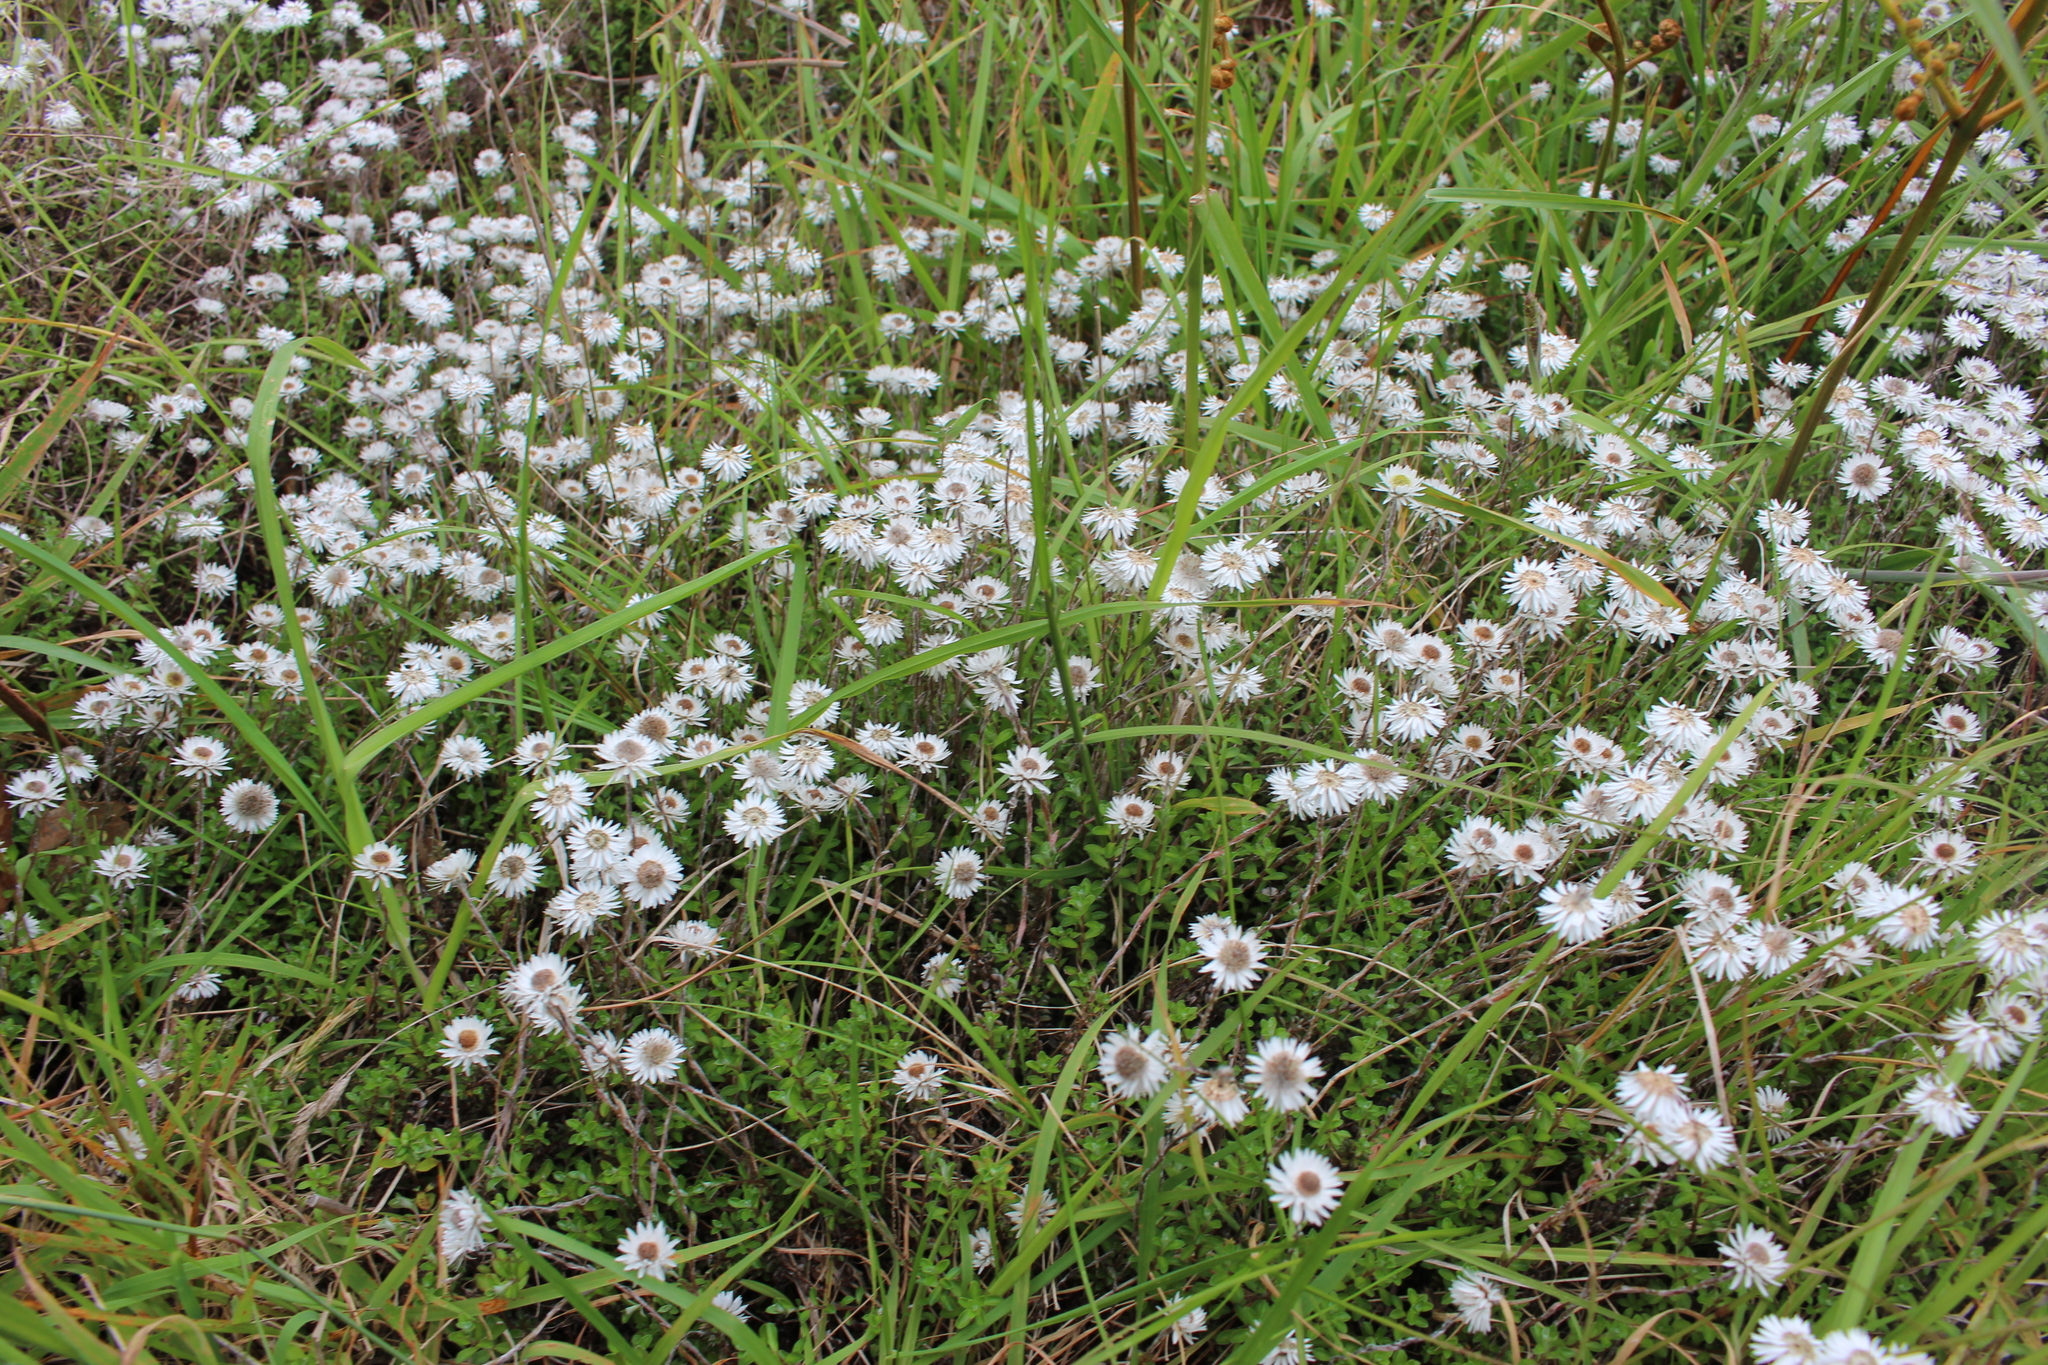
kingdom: Plantae
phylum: Tracheophyta
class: Magnoliopsida
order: Asterales
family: Asteraceae
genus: Anaphalioides
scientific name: Anaphalioides bellidioides
